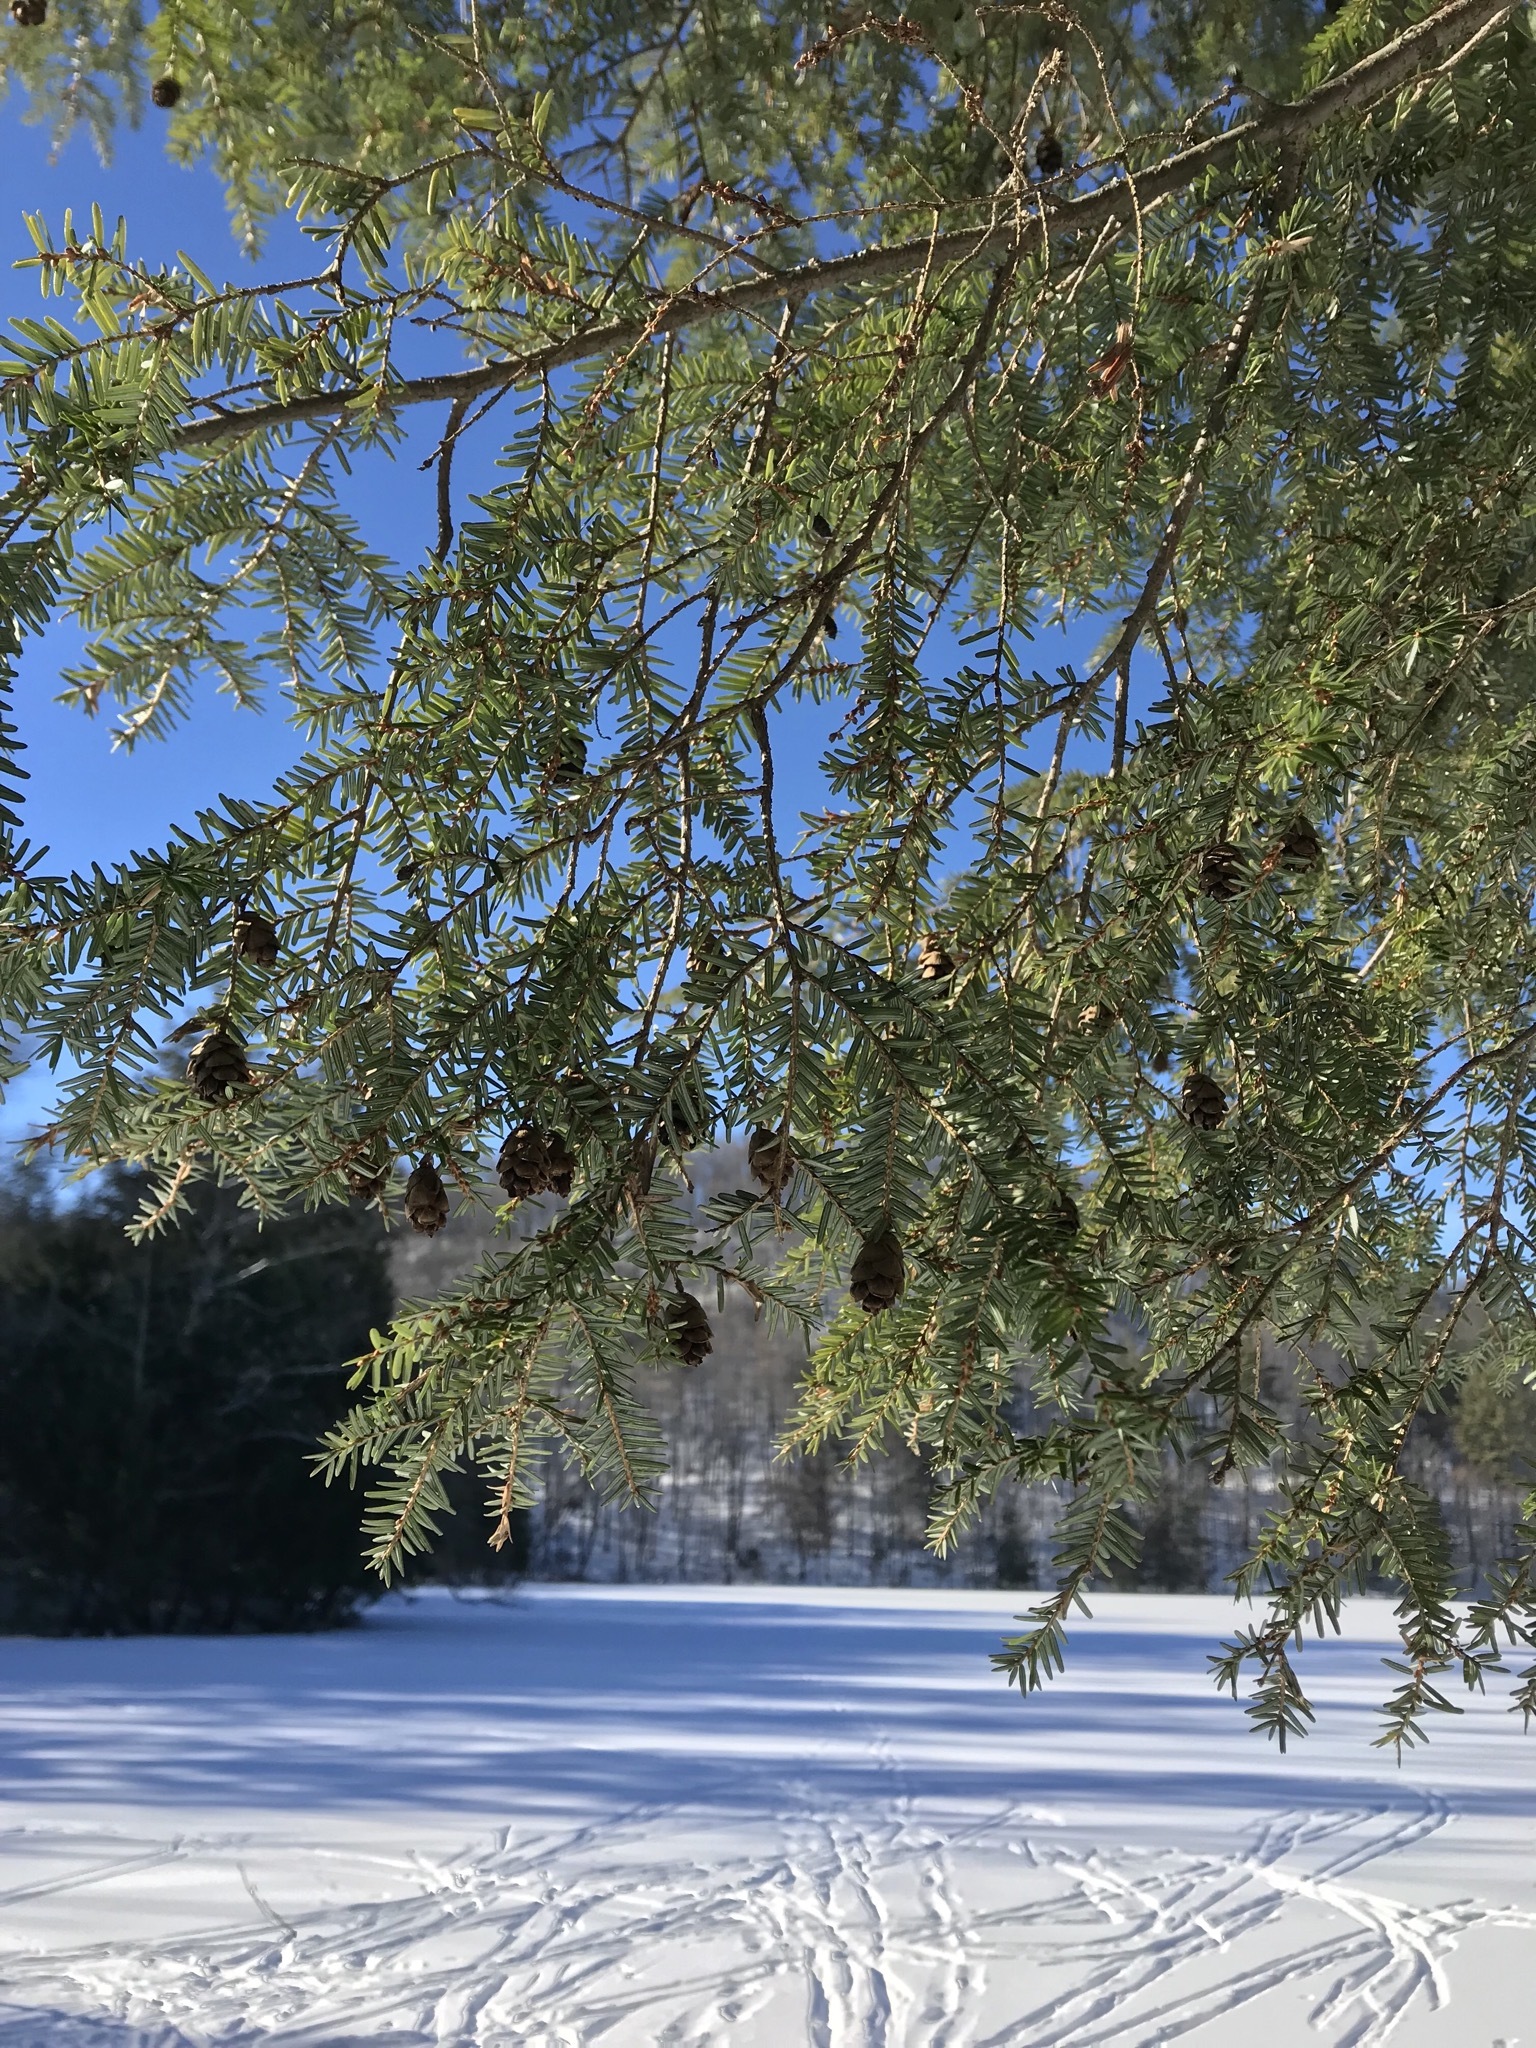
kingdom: Plantae
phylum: Tracheophyta
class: Pinopsida
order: Pinales
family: Pinaceae
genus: Tsuga
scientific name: Tsuga canadensis
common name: Eastern hemlock
